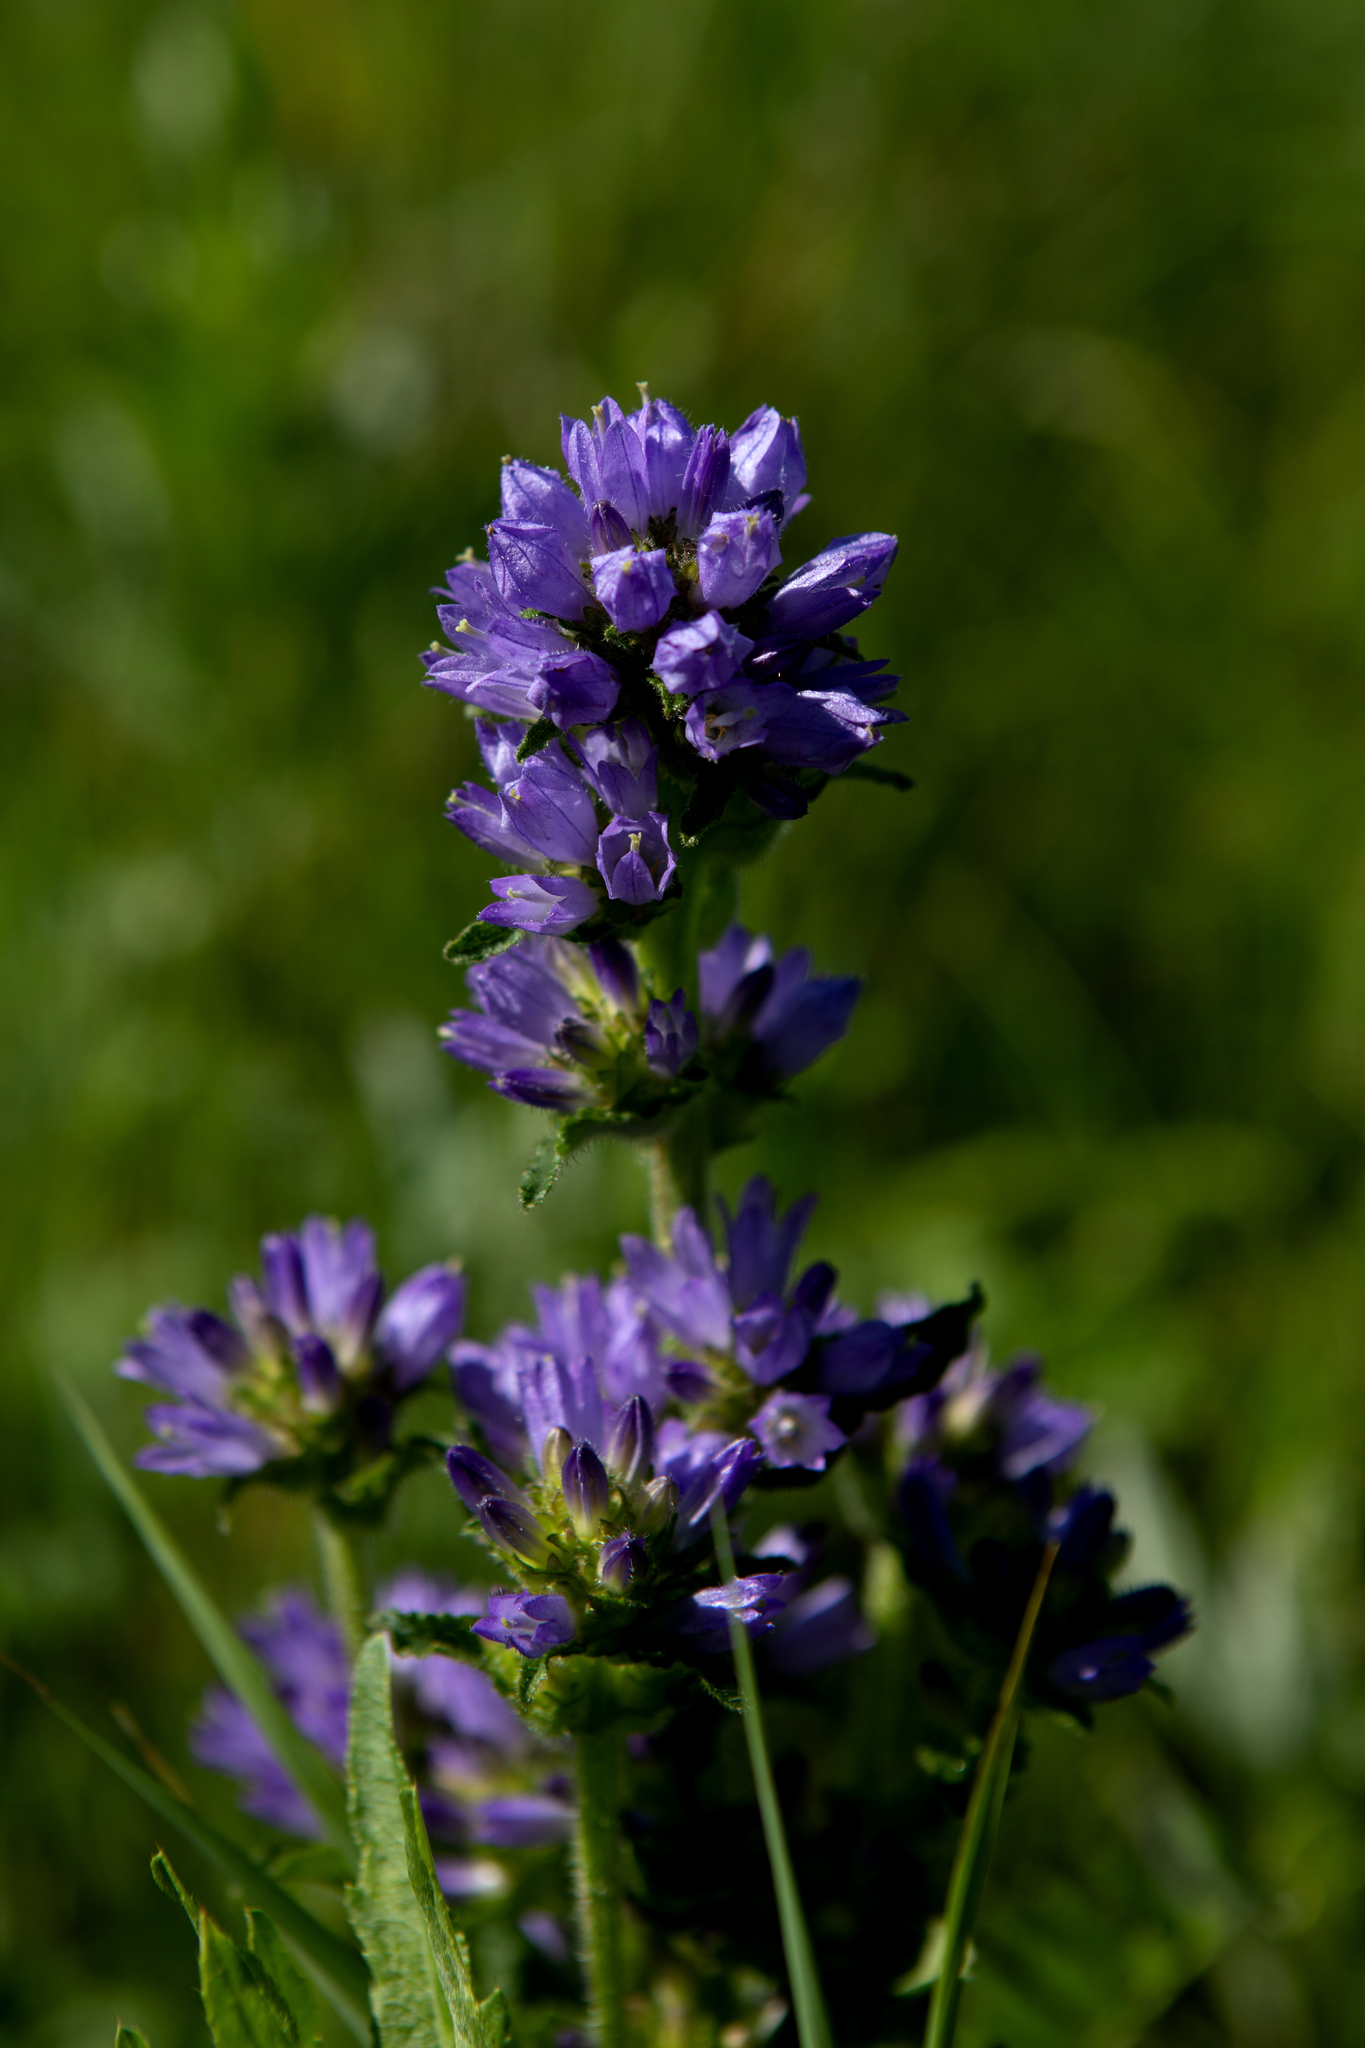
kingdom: Plantae
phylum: Tracheophyta
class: Magnoliopsida
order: Asterales
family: Campanulaceae
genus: Campanula
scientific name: Campanula cervicaria
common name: Bristly bellflower
